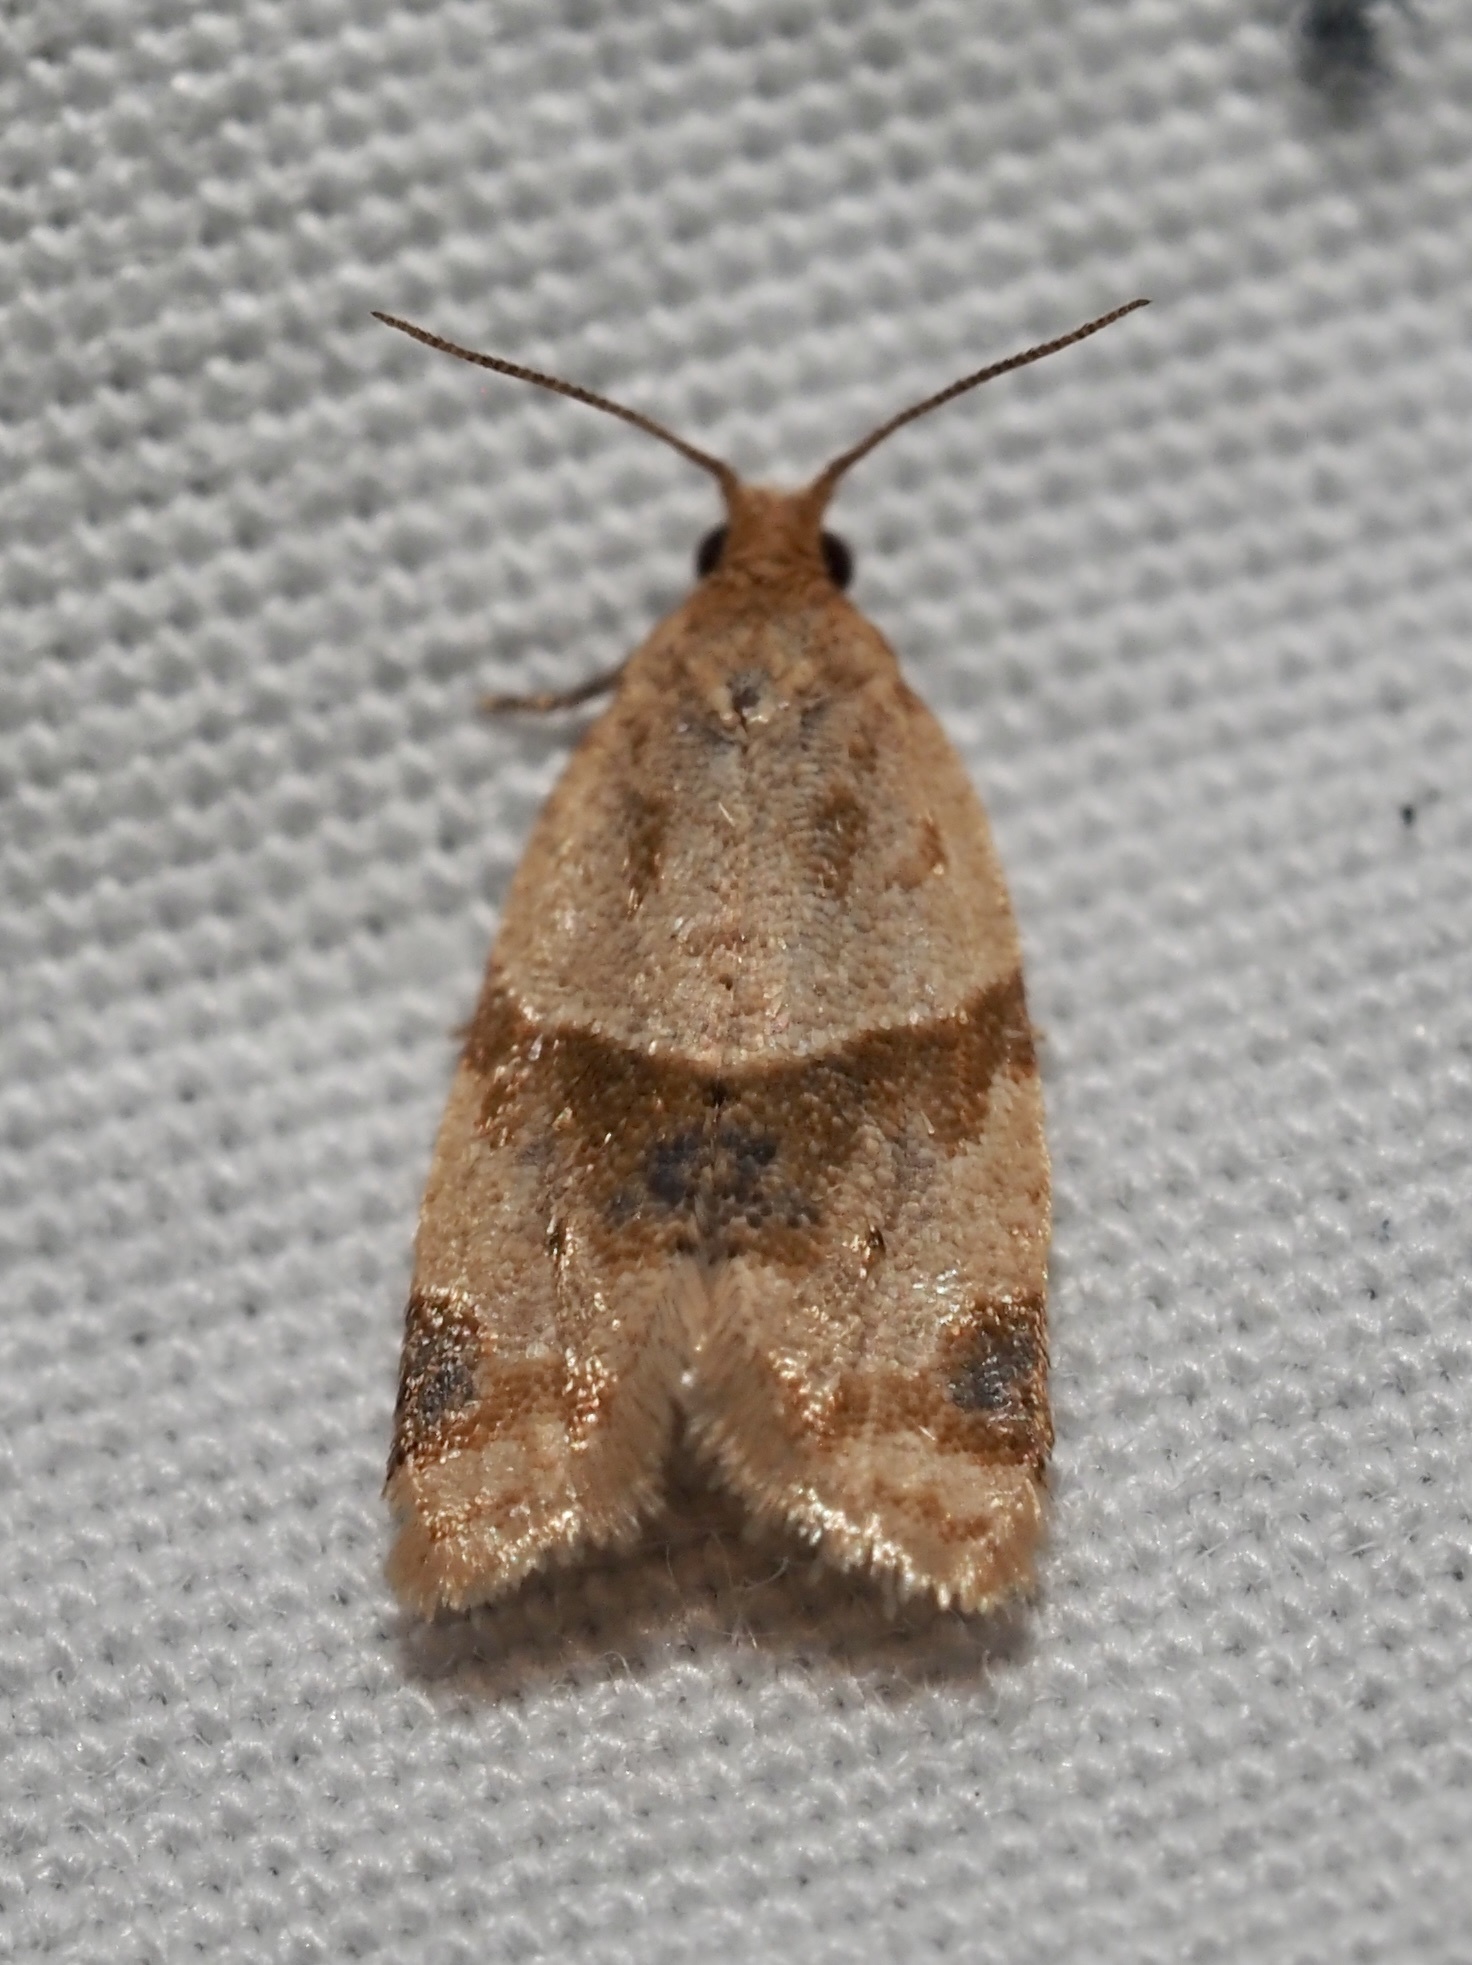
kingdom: Animalia
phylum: Arthropoda
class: Insecta
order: Lepidoptera
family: Tortricidae
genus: Clepsis
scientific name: Clepsis peritana
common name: Garden tortrix
